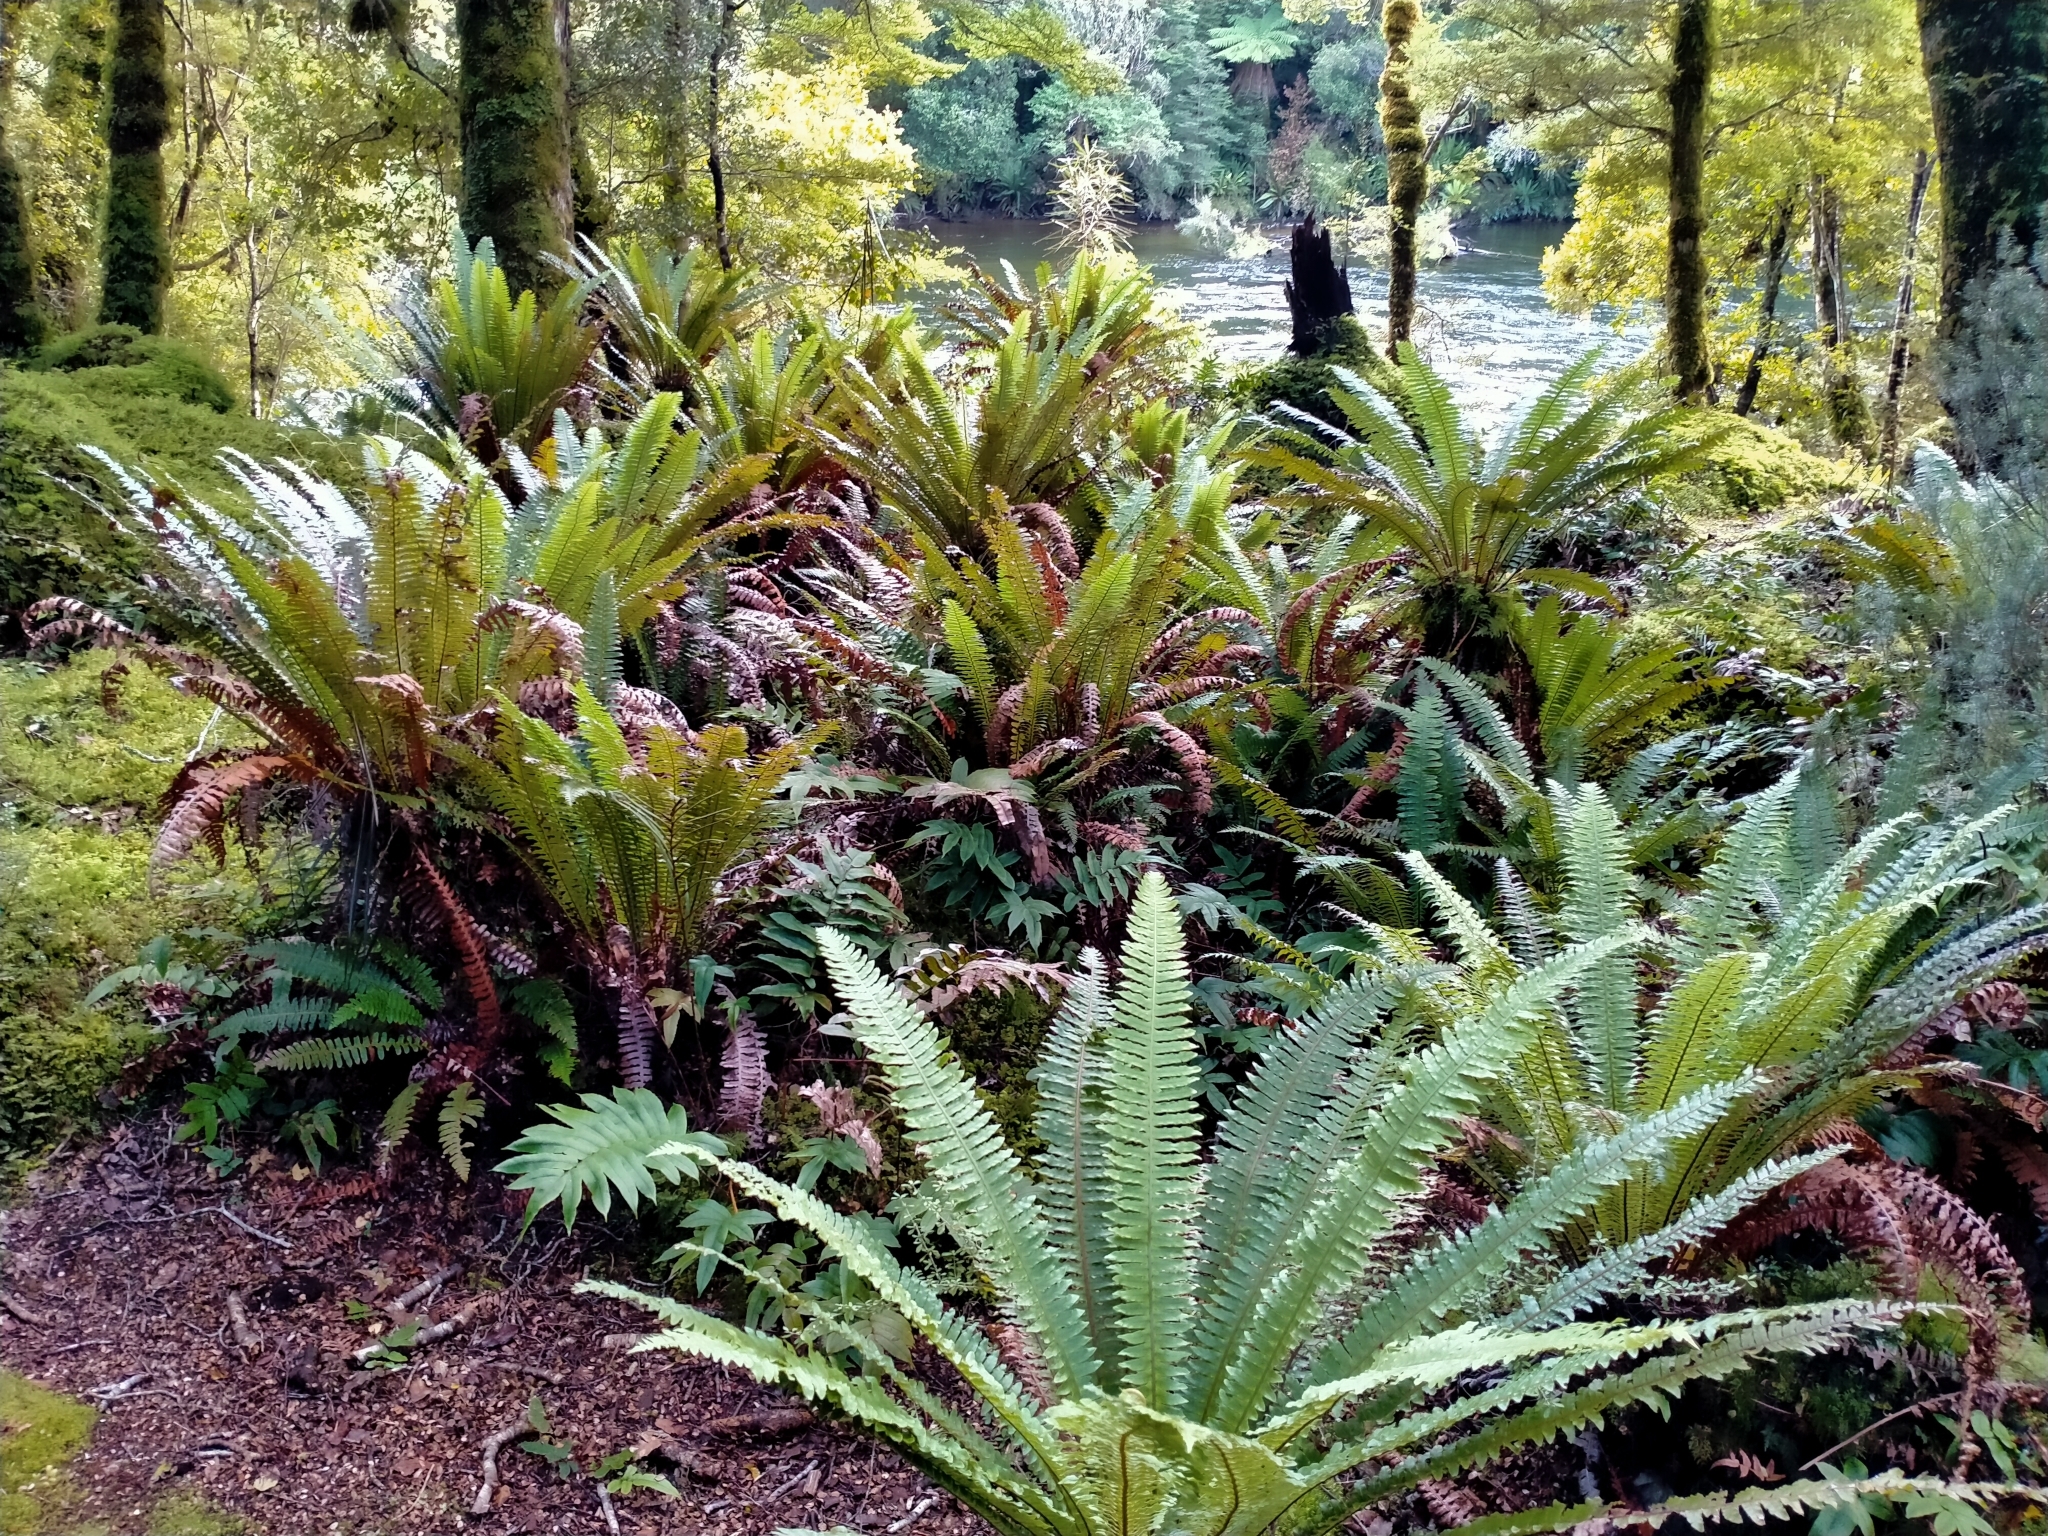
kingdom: Plantae
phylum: Tracheophyta
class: Polypodiopsida
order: Polypodiales
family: Blechnaceae
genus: Lomaria
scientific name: Lomaria discolor
